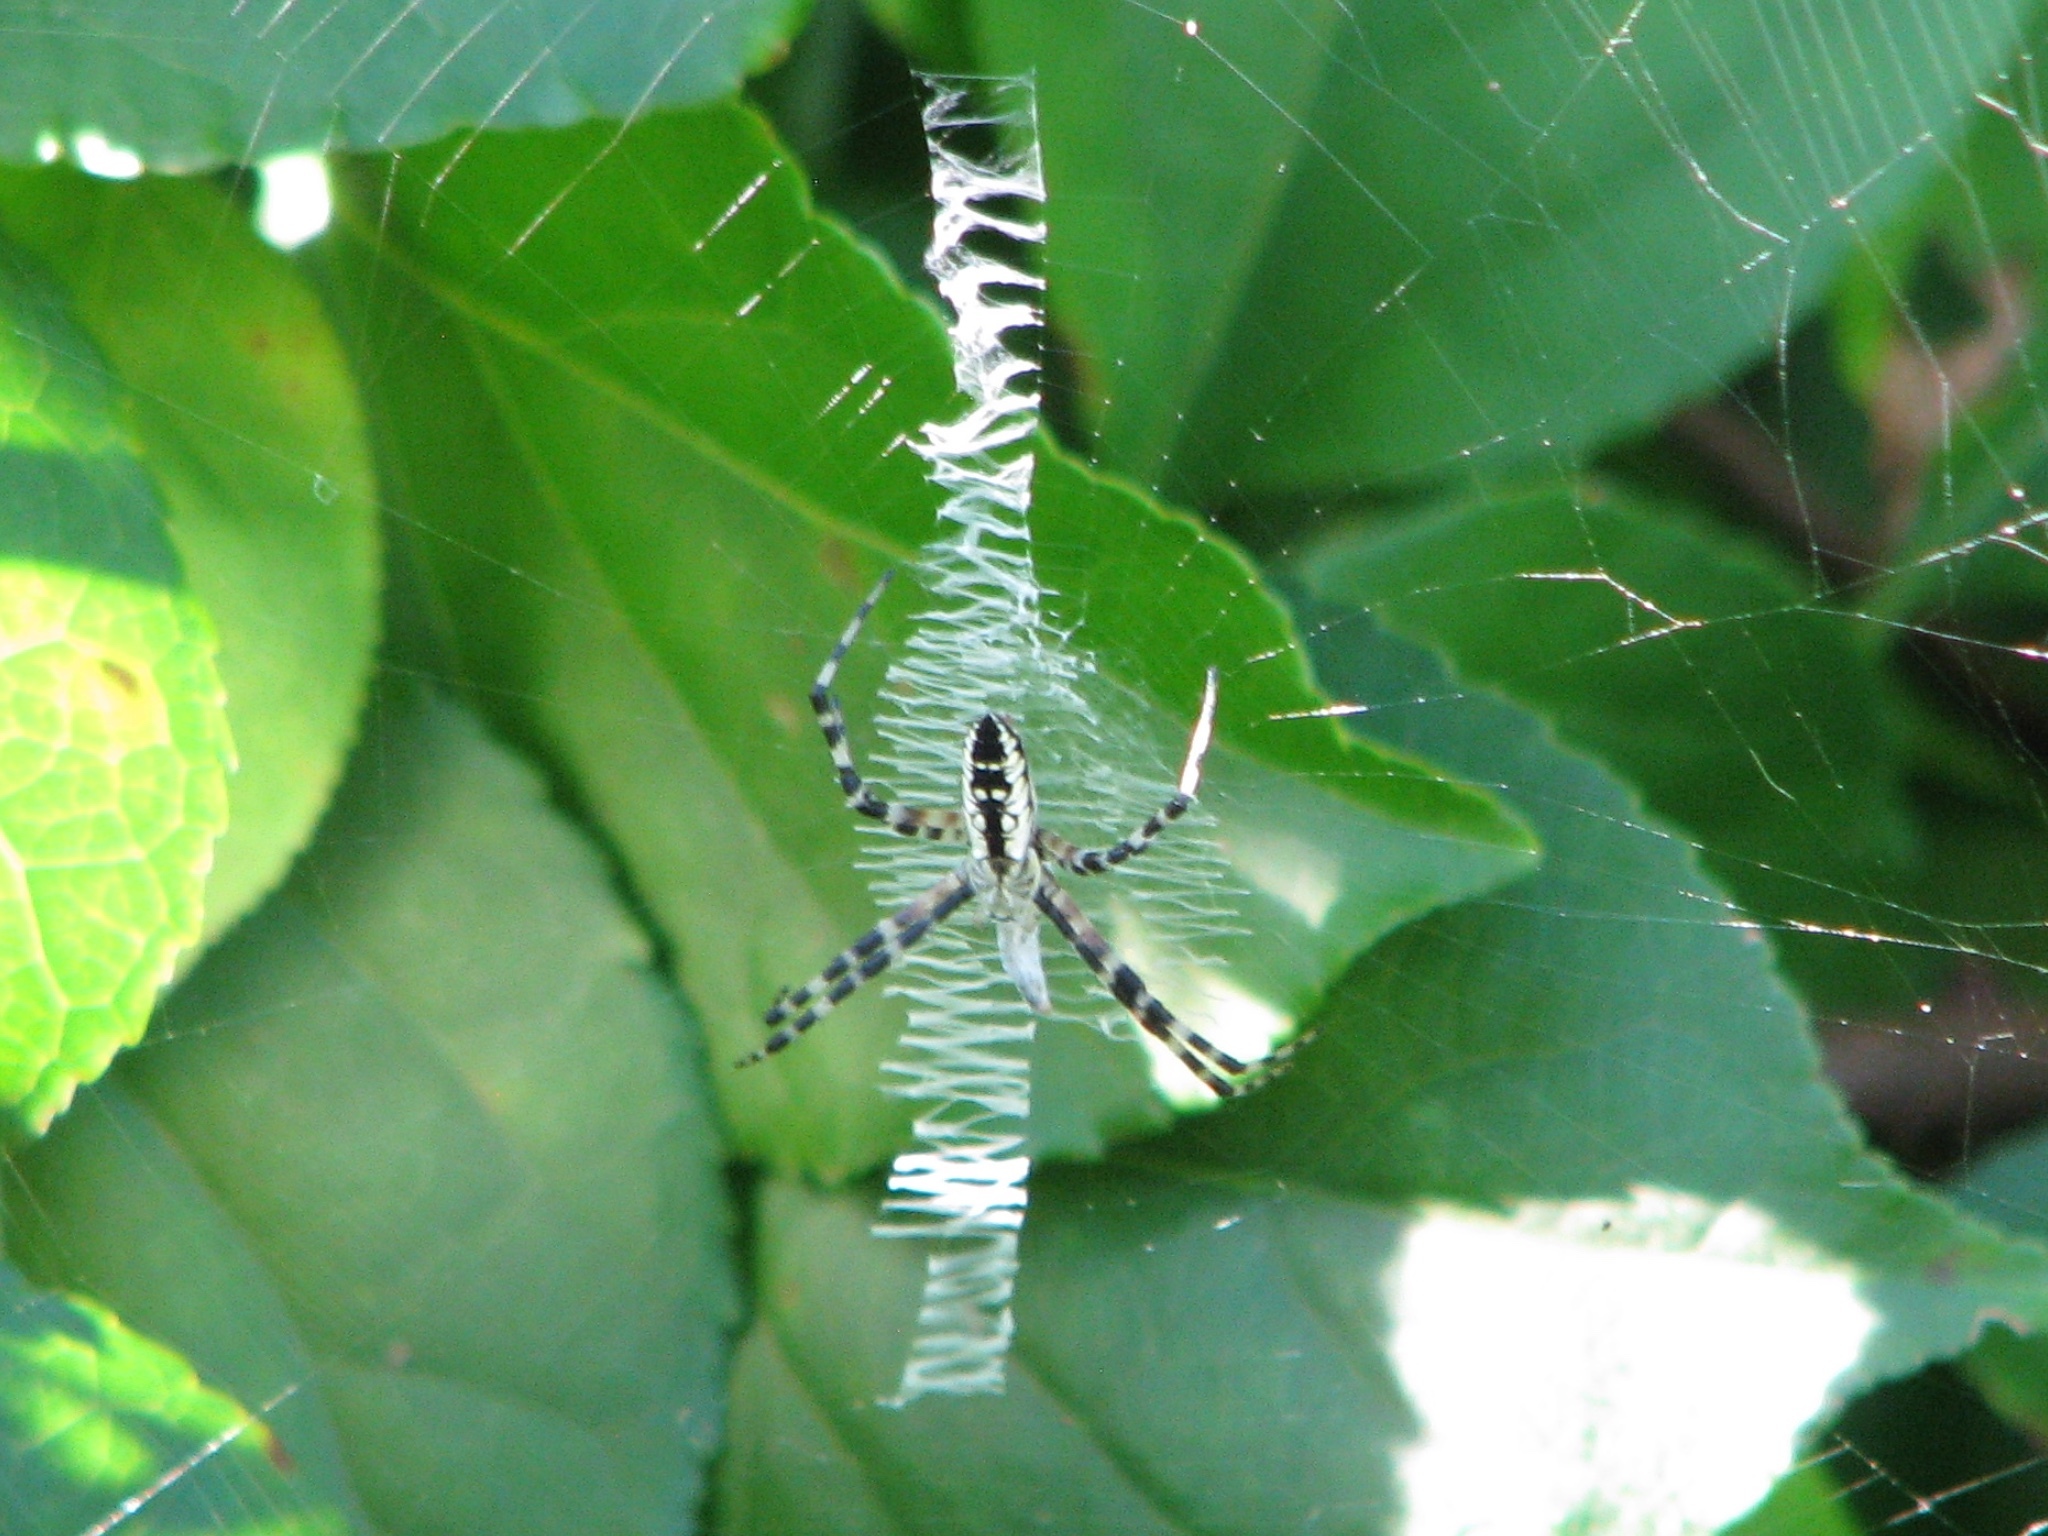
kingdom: Animalia
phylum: Arthropoda
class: Arachnida
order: Araneae
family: Araneidae
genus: Argiope
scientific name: Argiope aurantia
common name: Orb weavers
